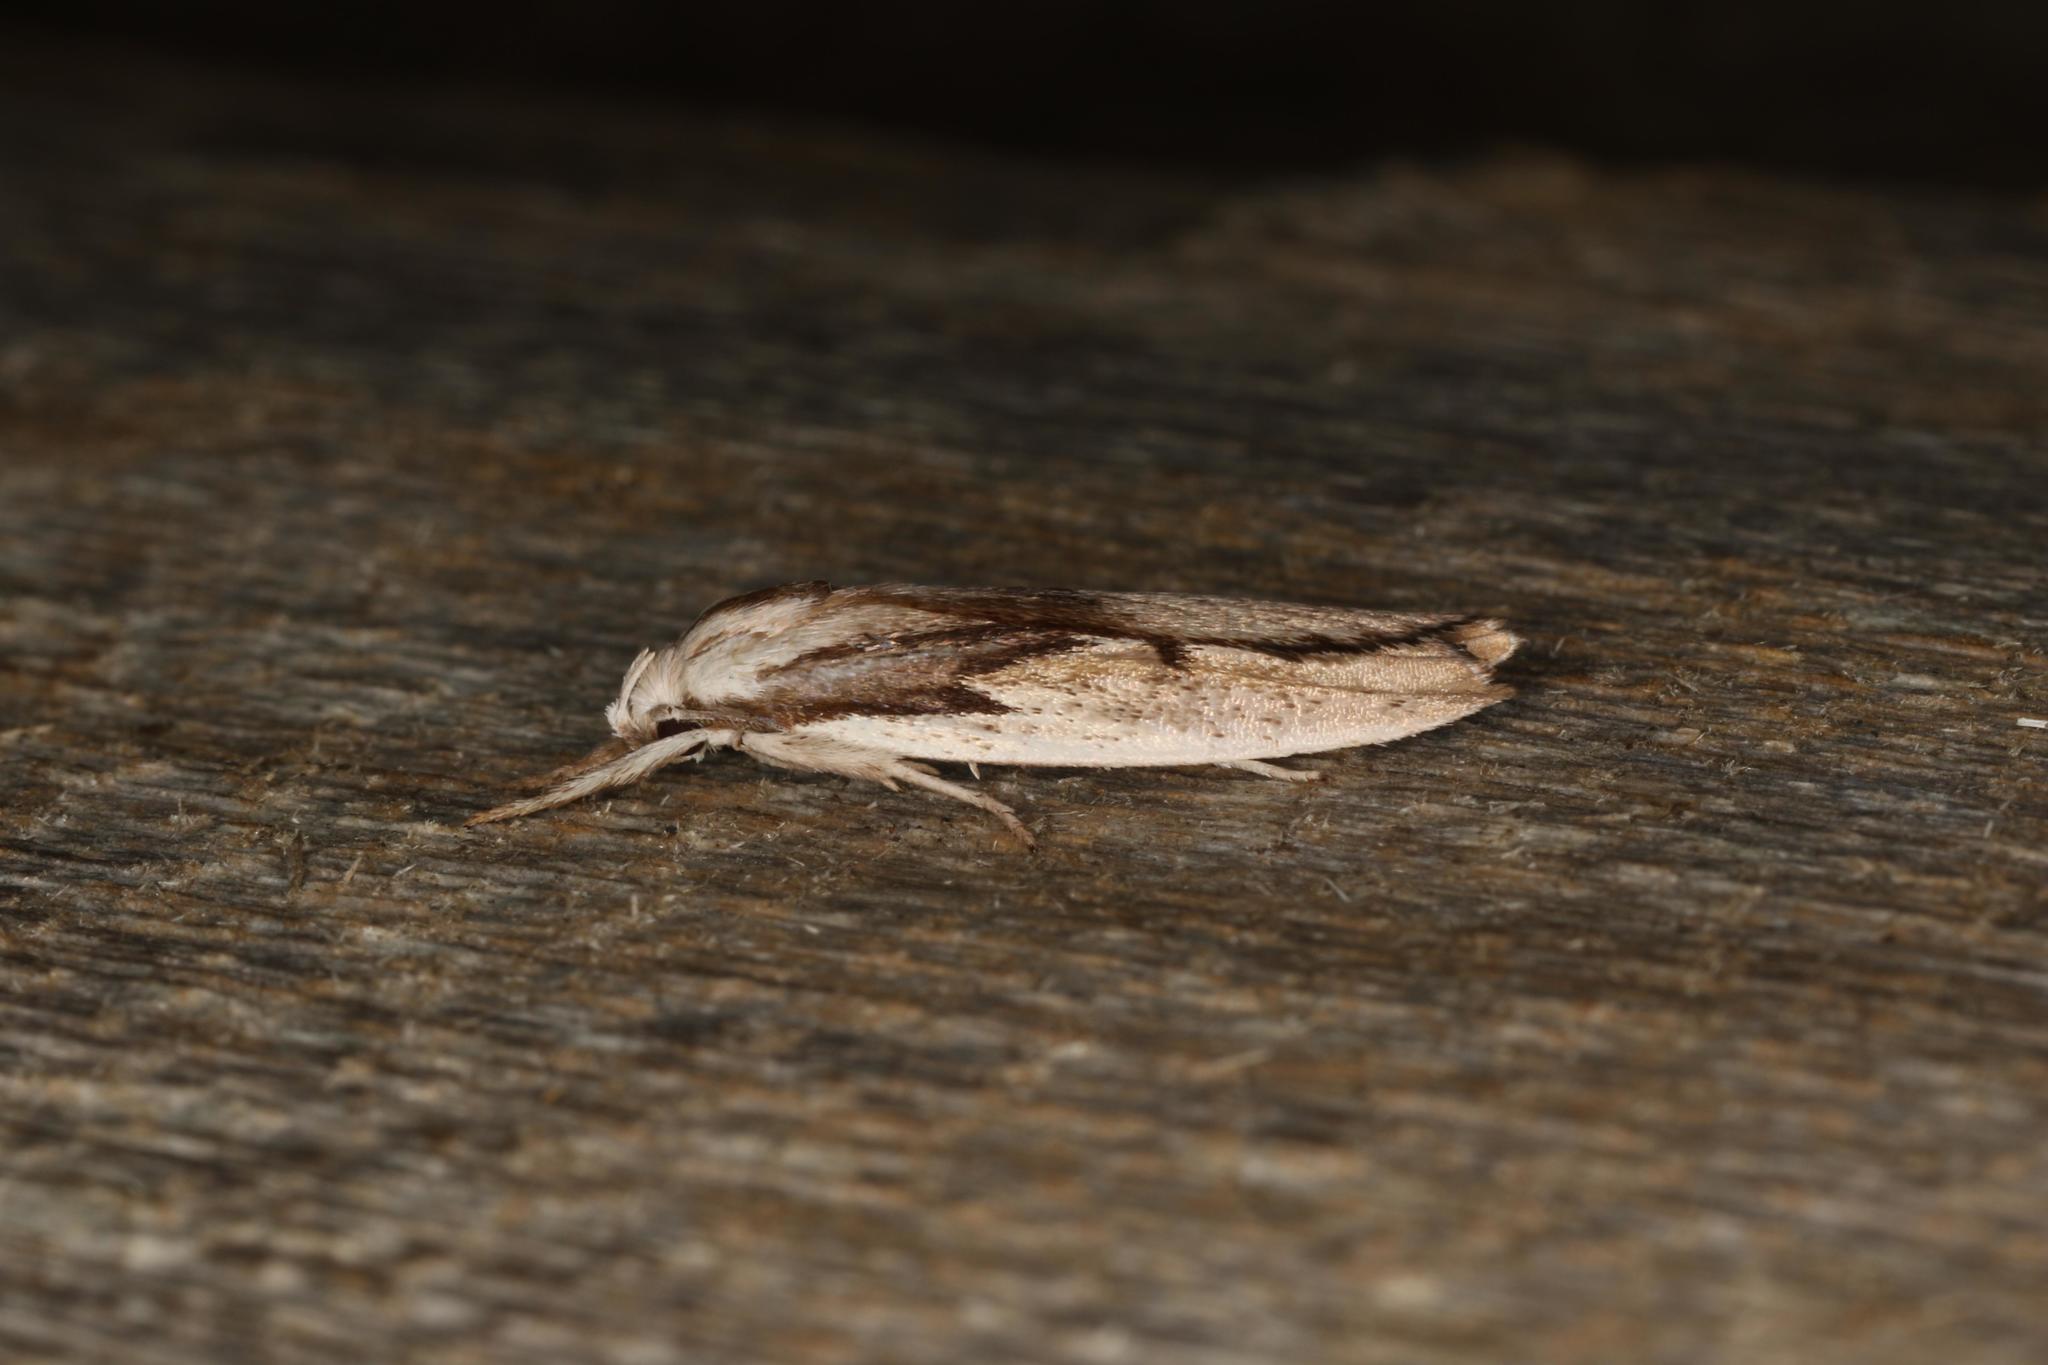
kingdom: Animalia
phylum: Arthropoda
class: Insecta
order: Lepidoptera
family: Xyloryctidae
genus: Pilostibes
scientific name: Pilostibes basivitta
